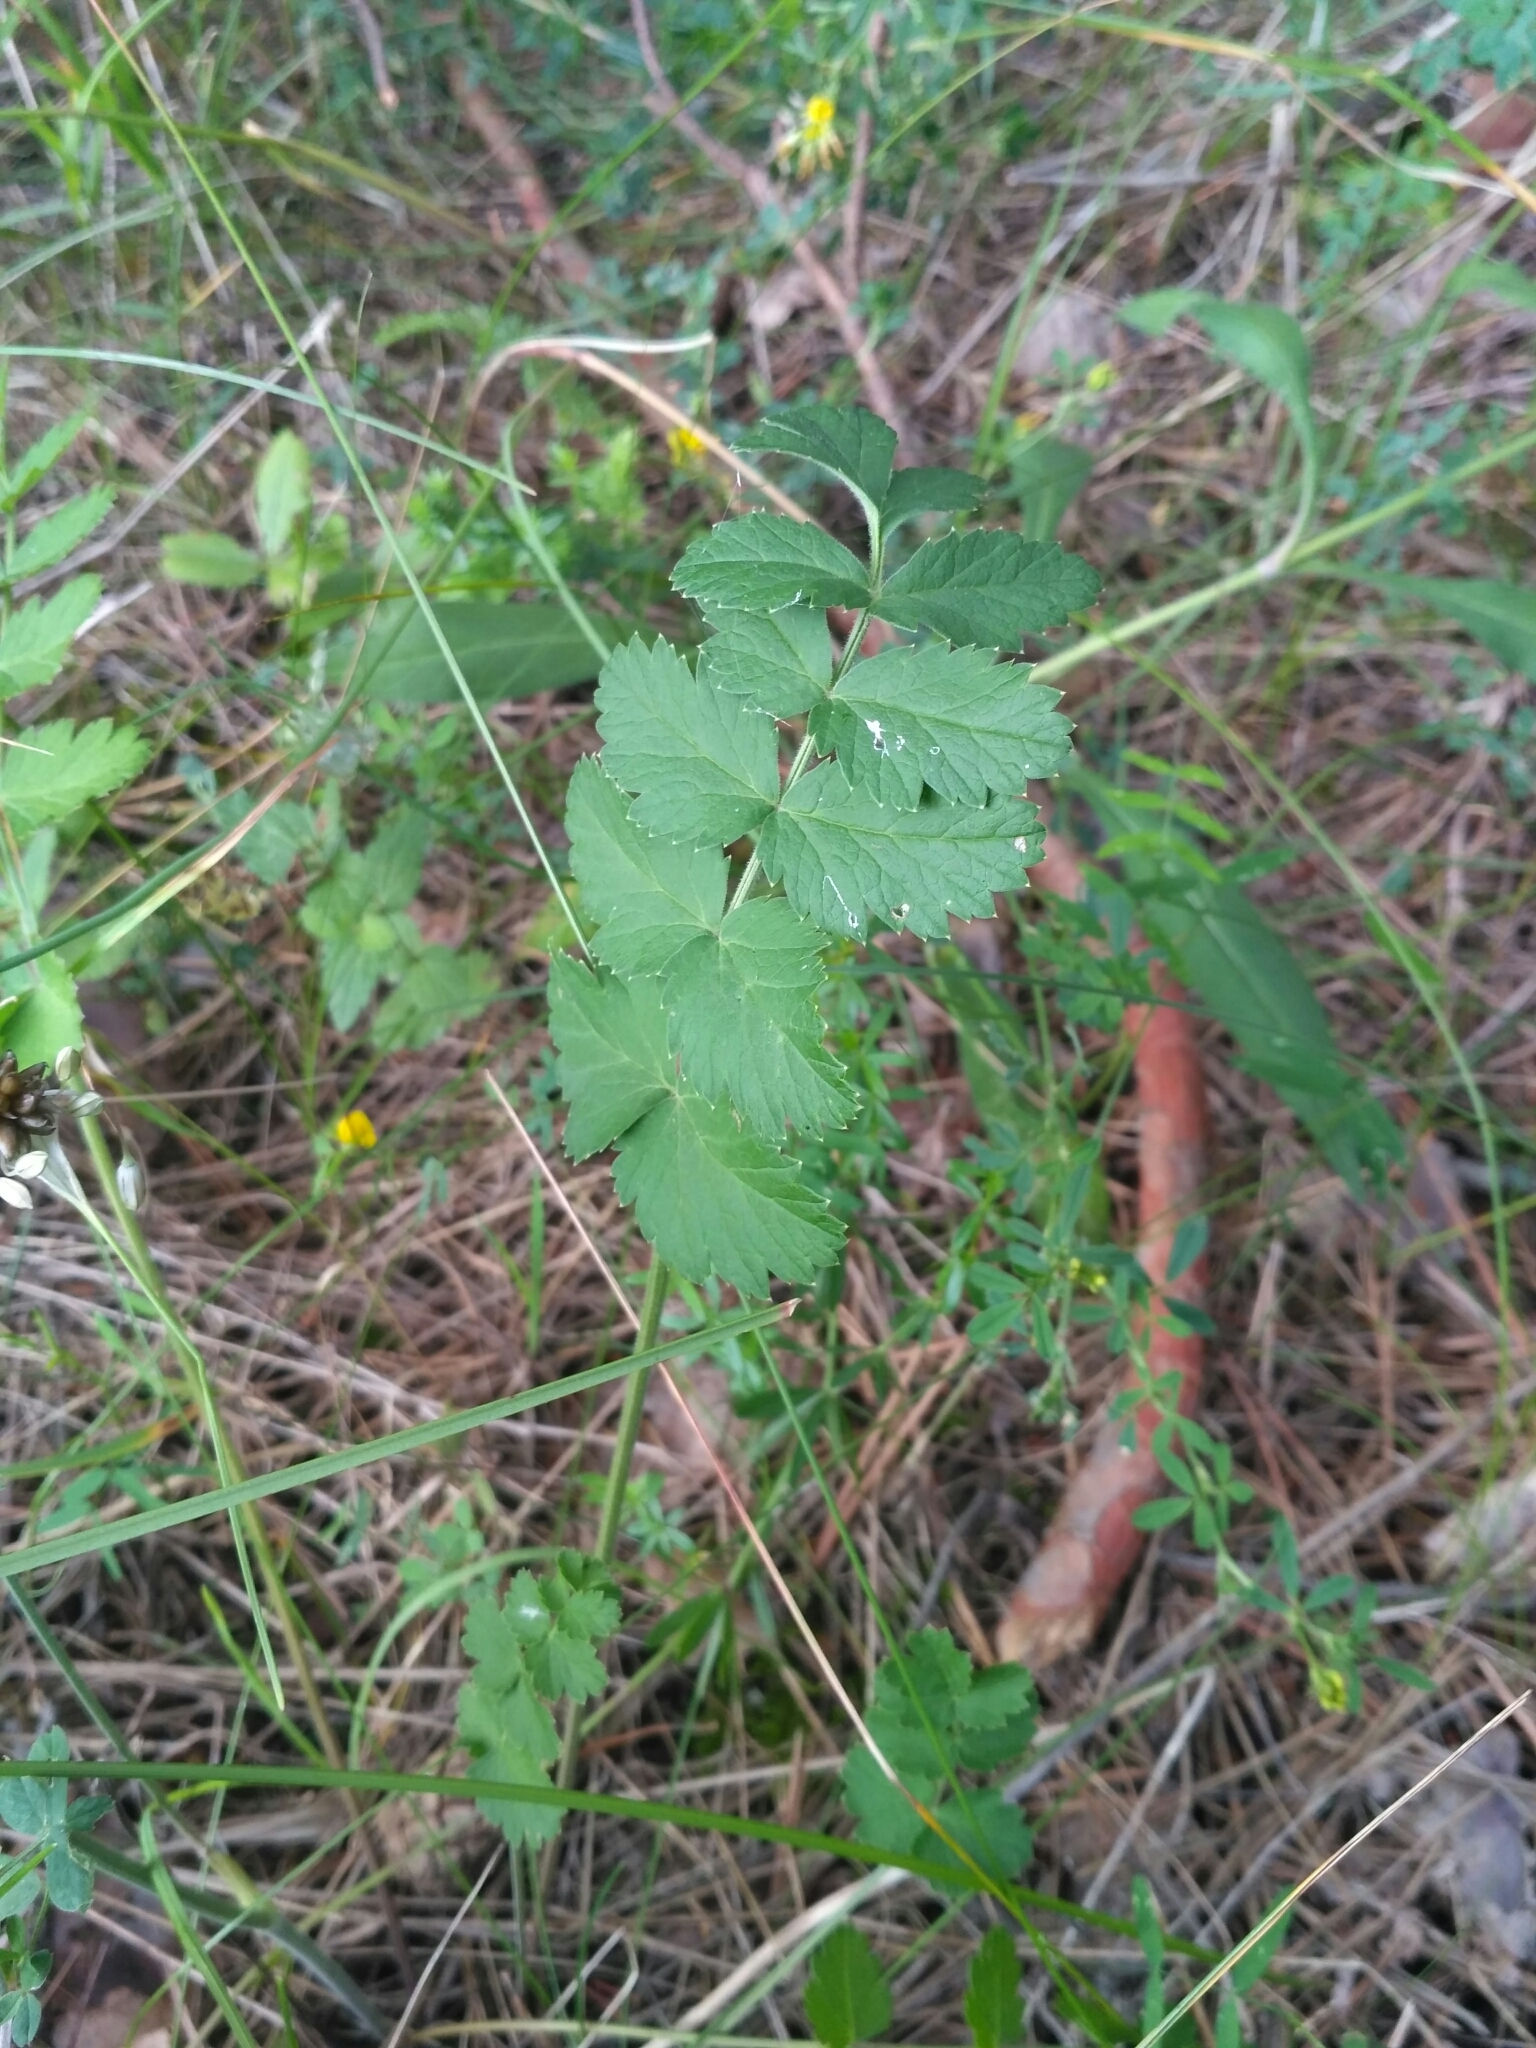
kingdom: Plantae
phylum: Tracheophyta
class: Magnoliopsida
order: Apiales
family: Apiaceae
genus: Pimpinella
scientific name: Pimpinella saxifraga
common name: Burnet-saxifrage
